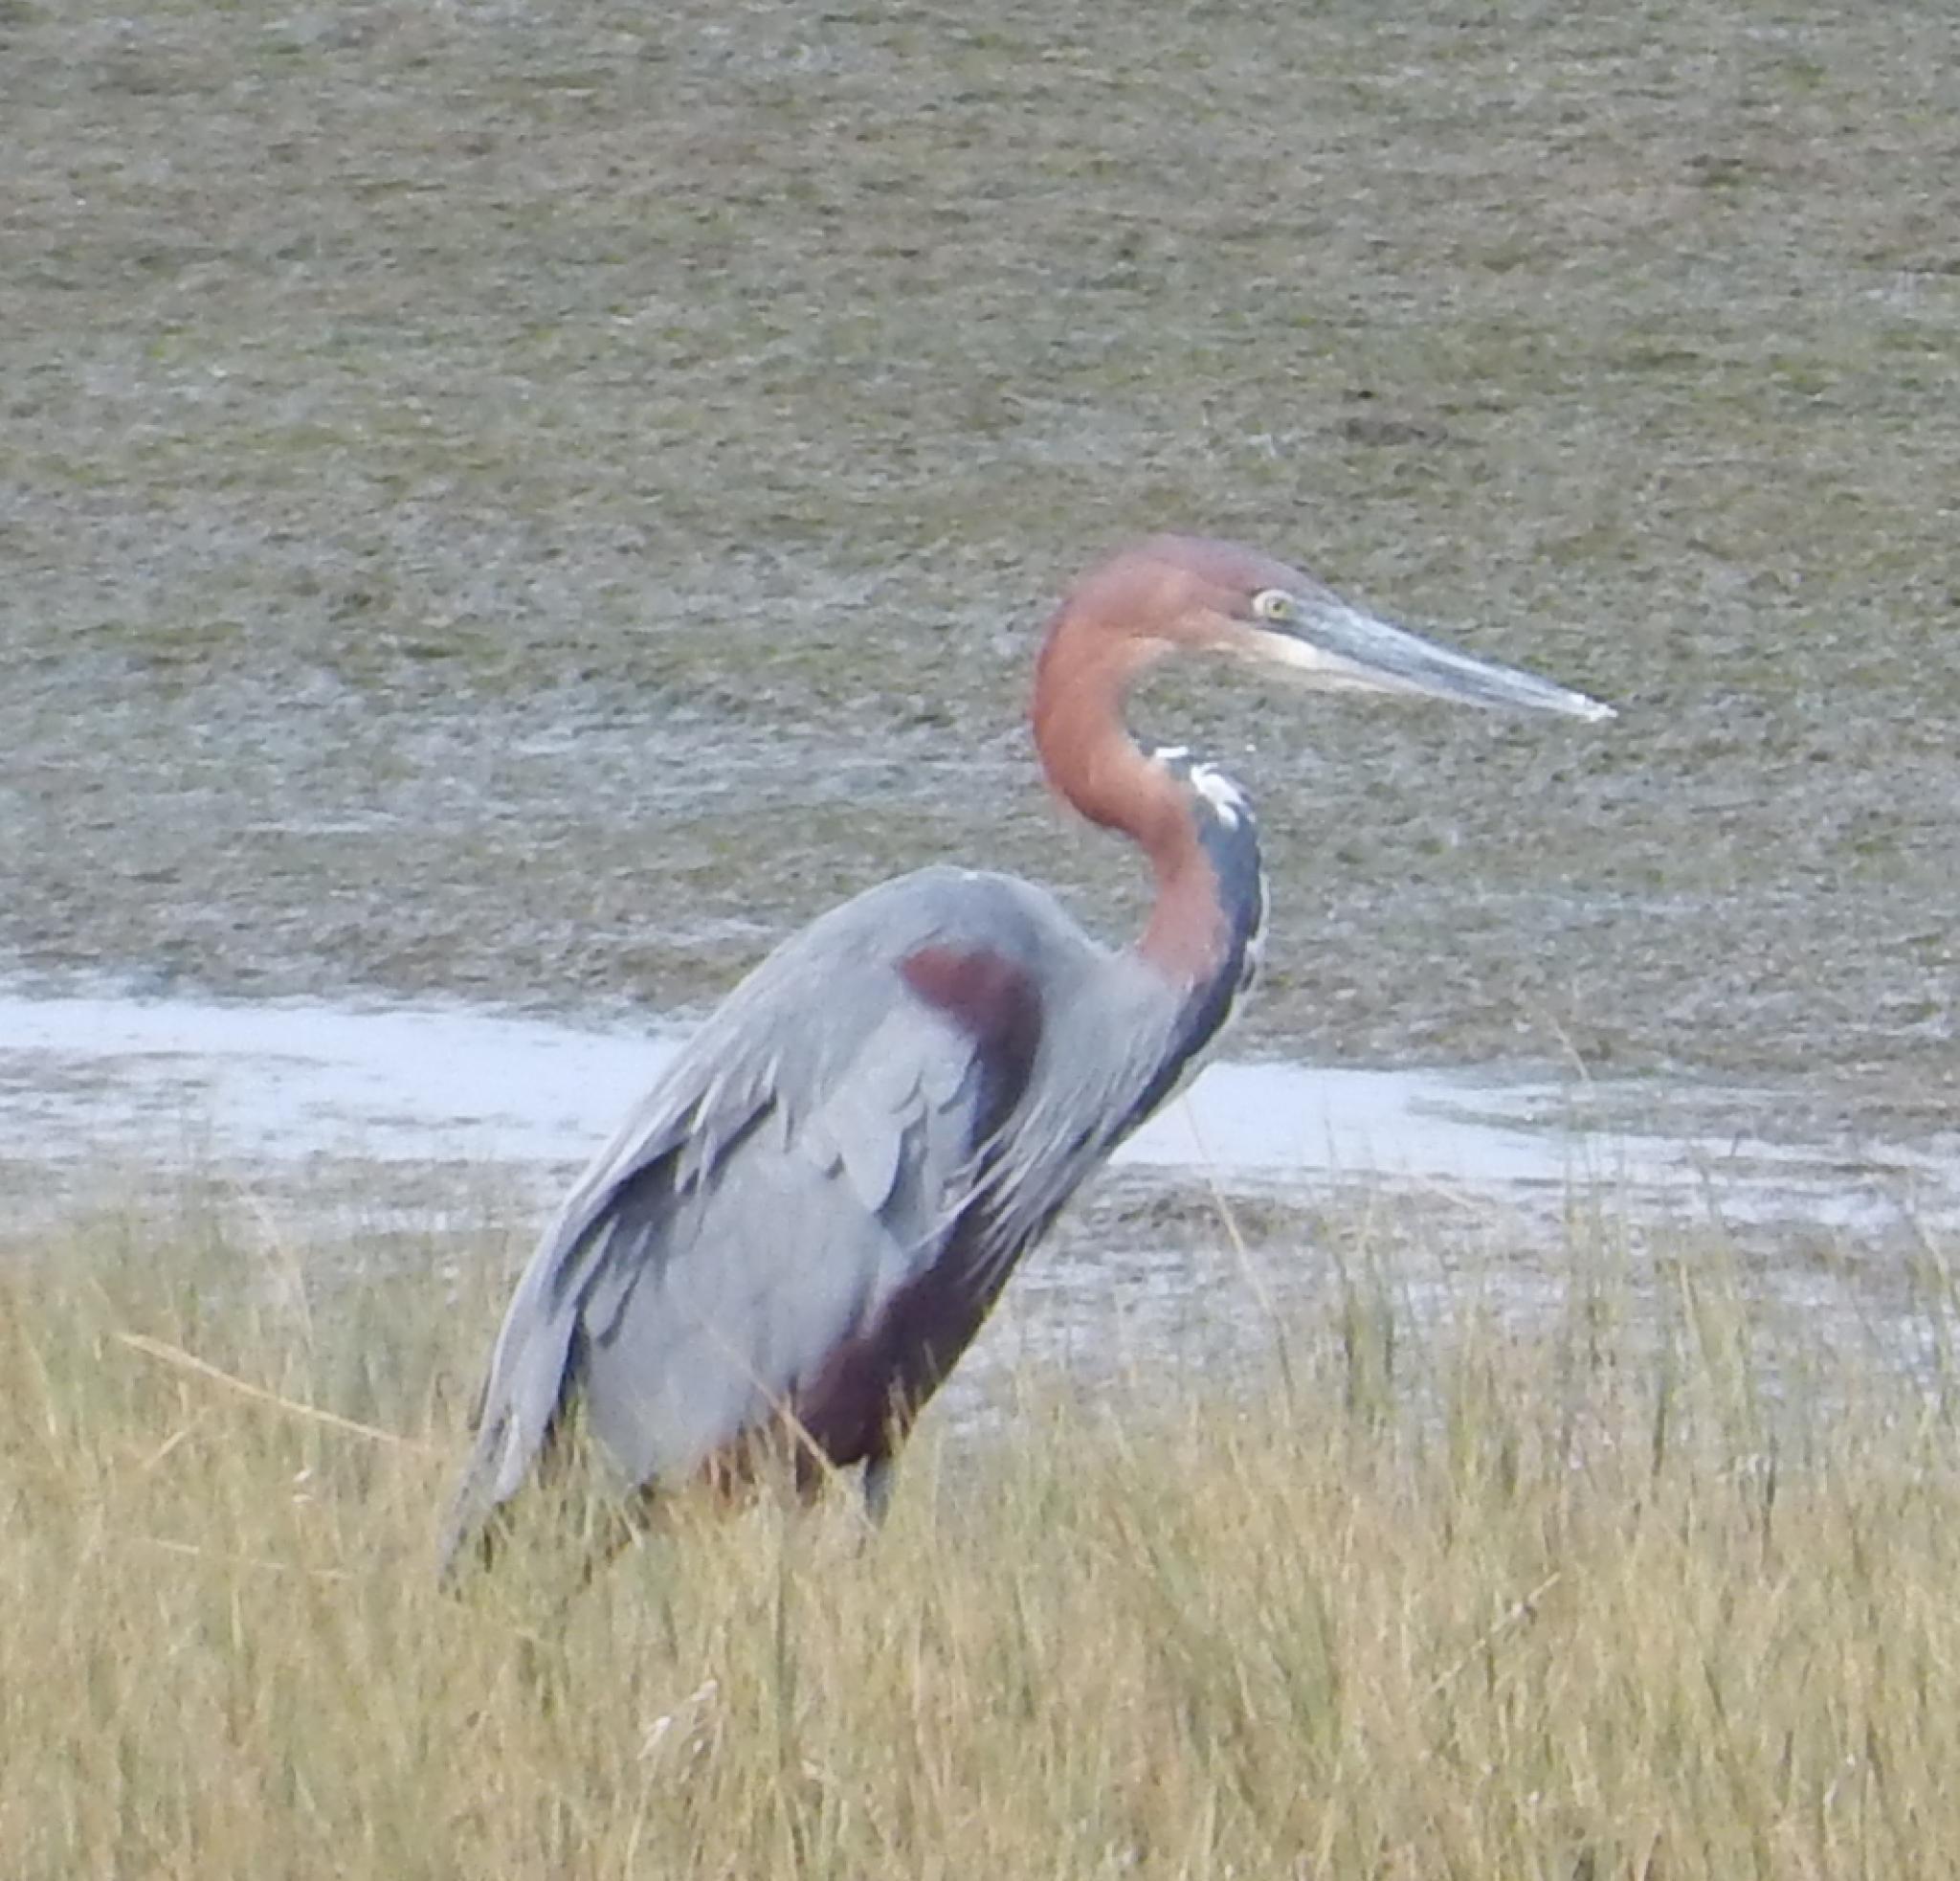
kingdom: Animalia
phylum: Chordata
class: Aves
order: Pelecaniformes
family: Ardeidae
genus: Ardea
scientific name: Ardea goliath
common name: Goliath heron
